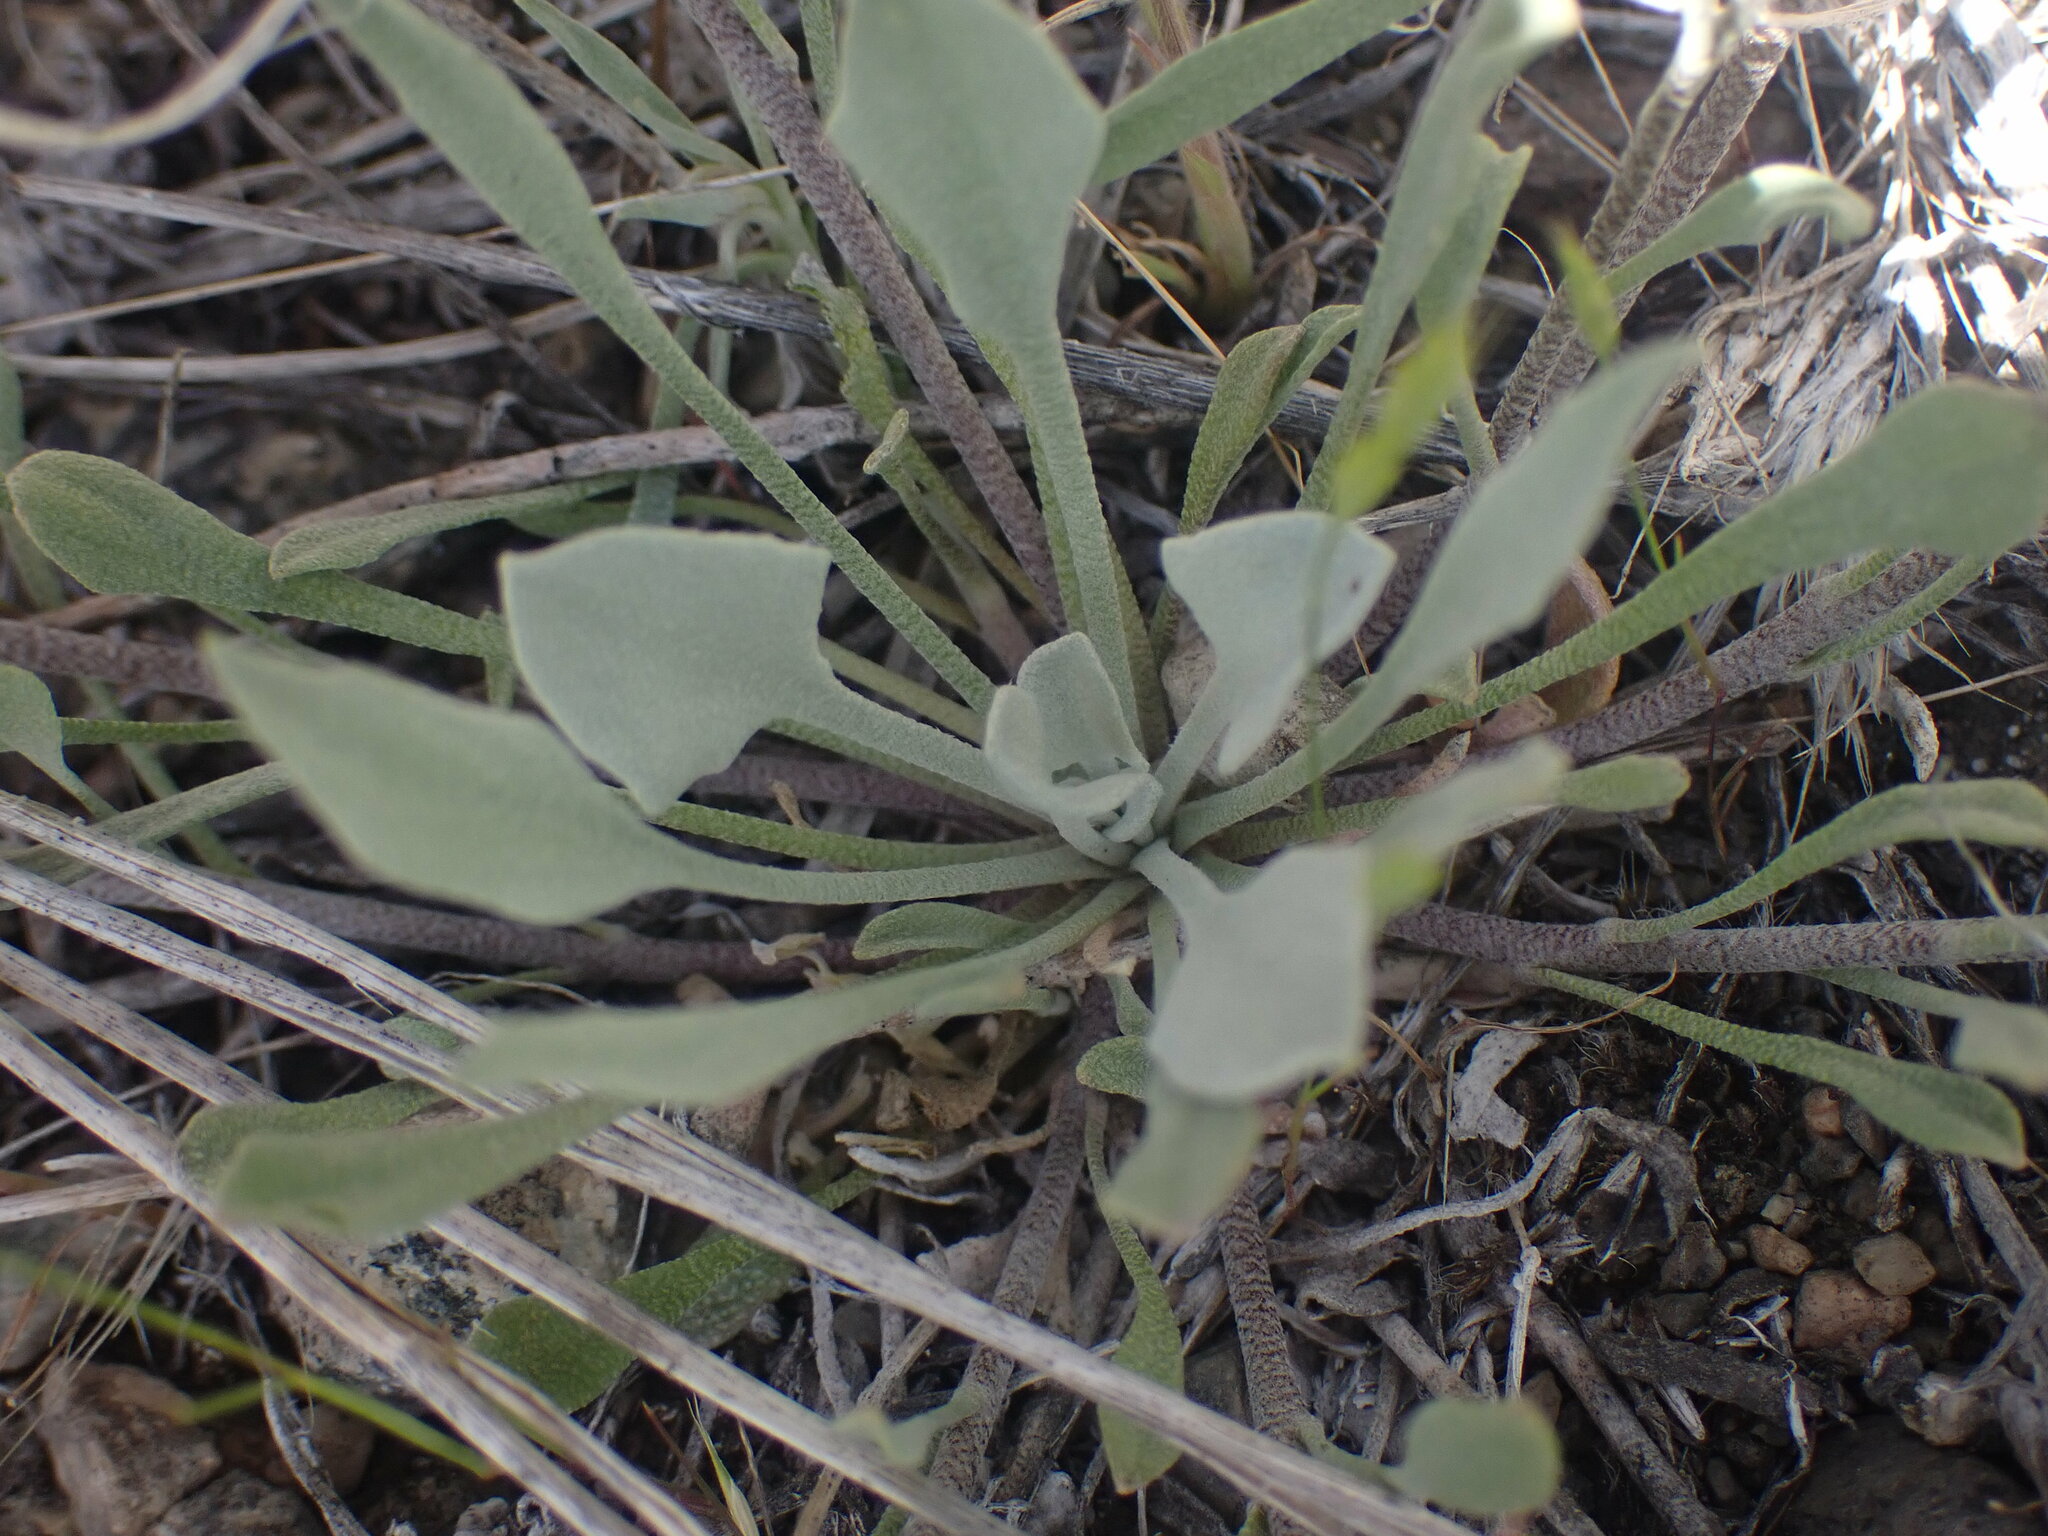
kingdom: Plantae
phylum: Tracheophyta
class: Magnoliopsida
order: Brassicales
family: Brassicaceae
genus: Physaria
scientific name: Physaria douglasii
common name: Douglas's bladderpod
